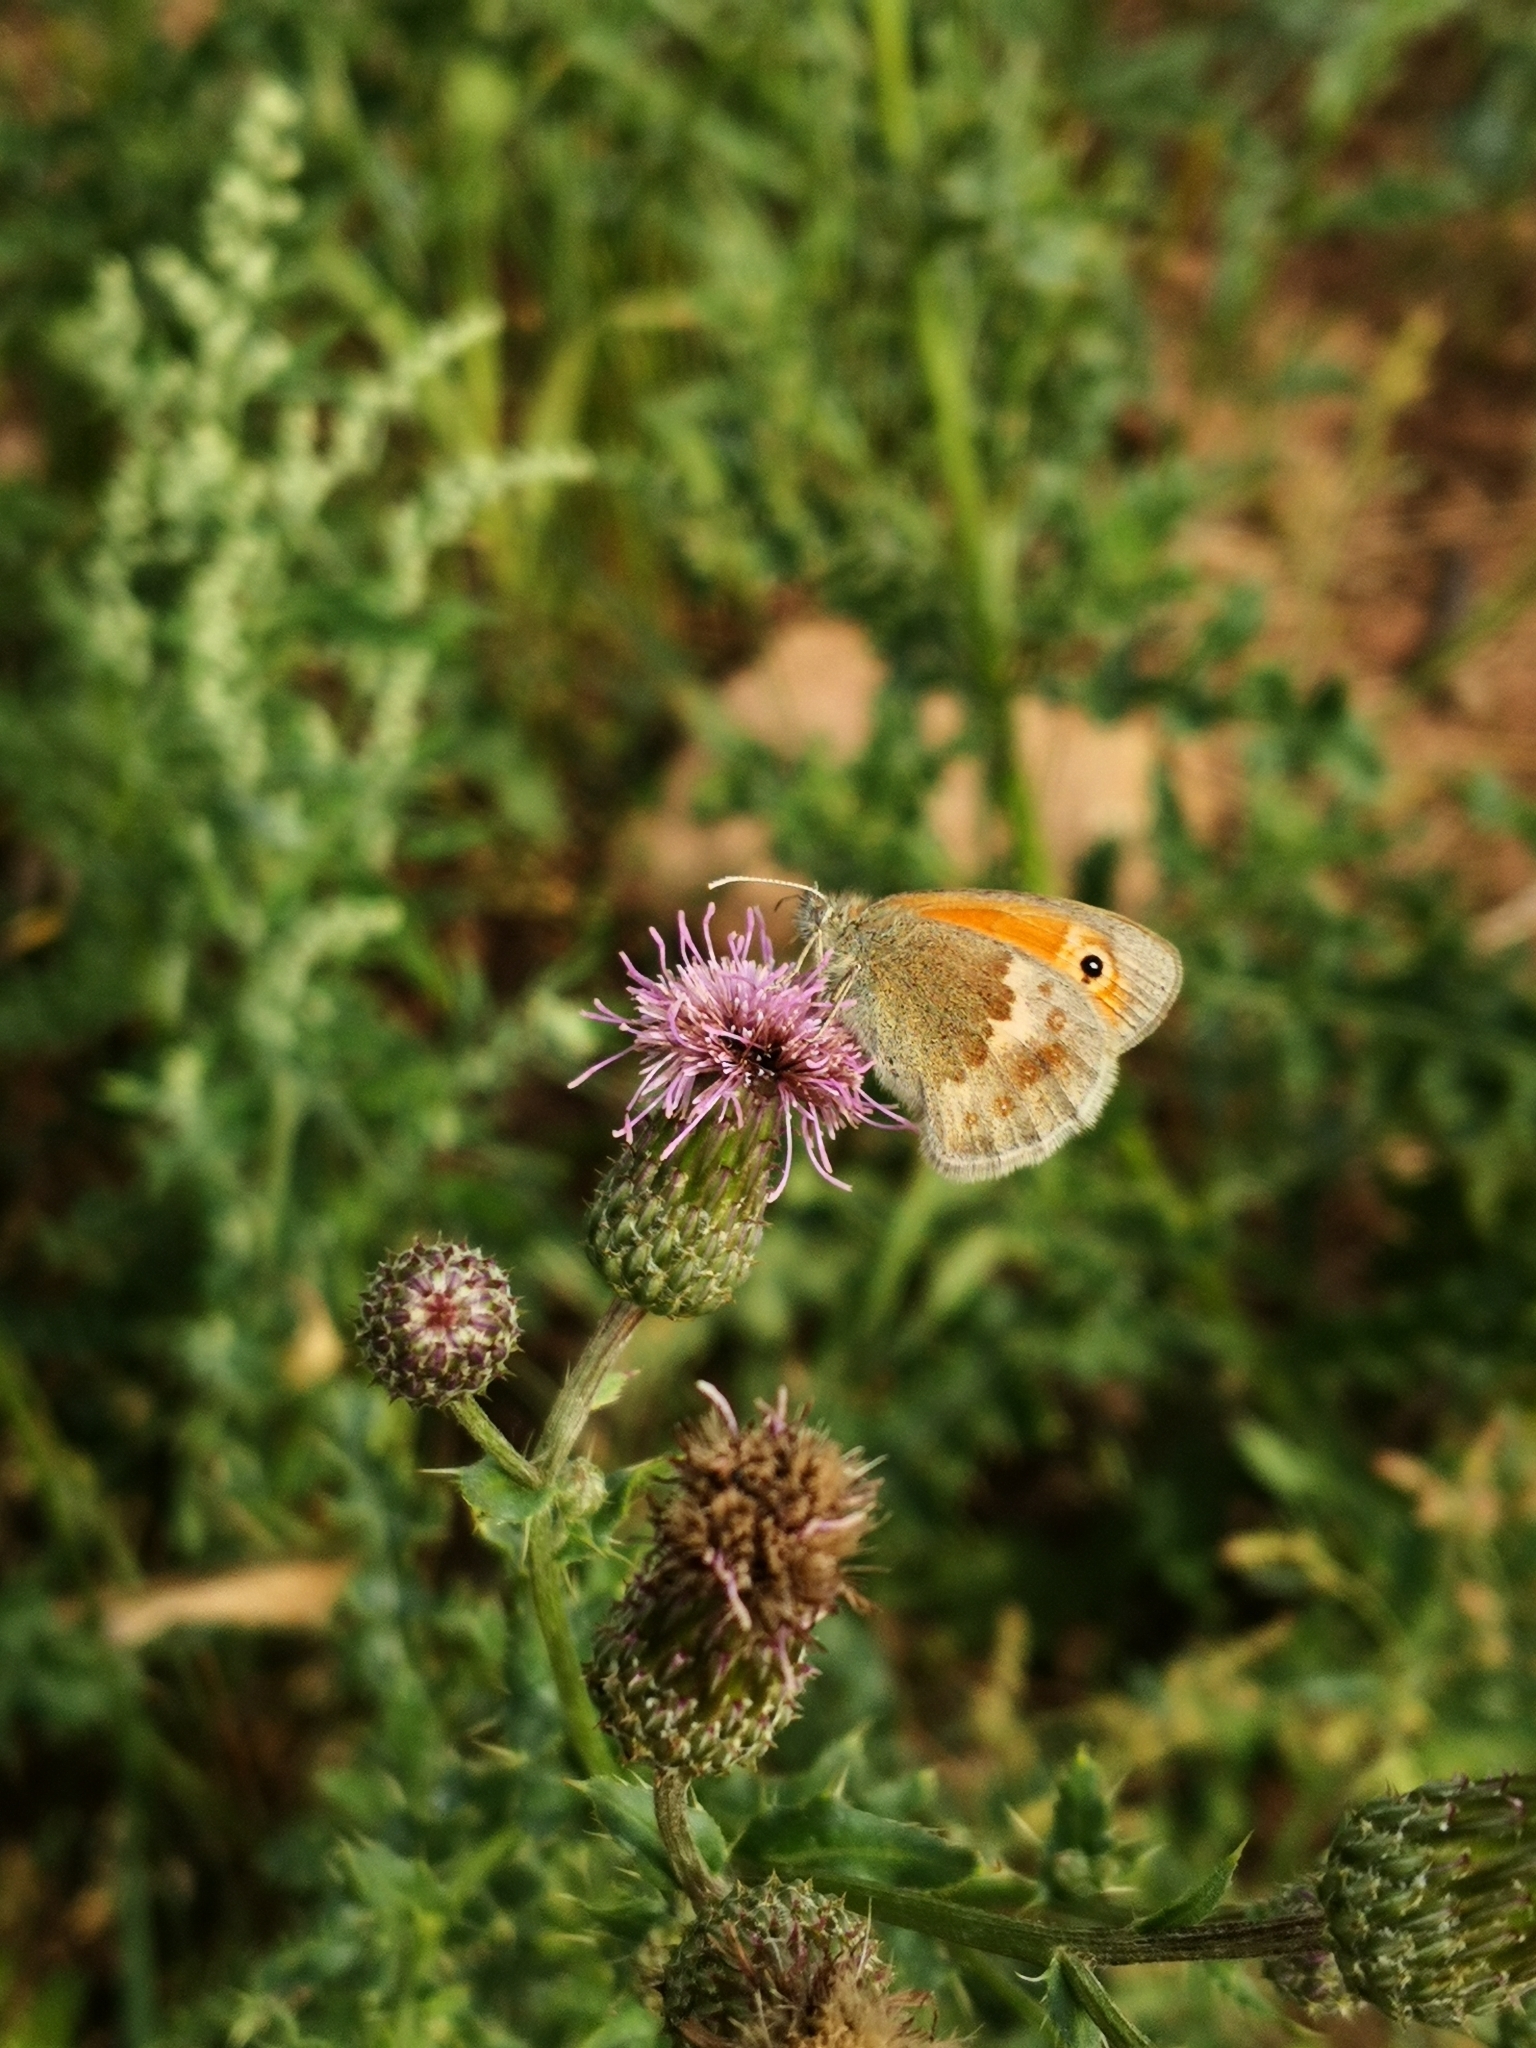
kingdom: Animalia
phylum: Arthropoda
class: Insecta
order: Lepidoptera
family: Nymphalidae
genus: Coenonympha
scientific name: Coenonympha pamphilus
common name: Small heath
